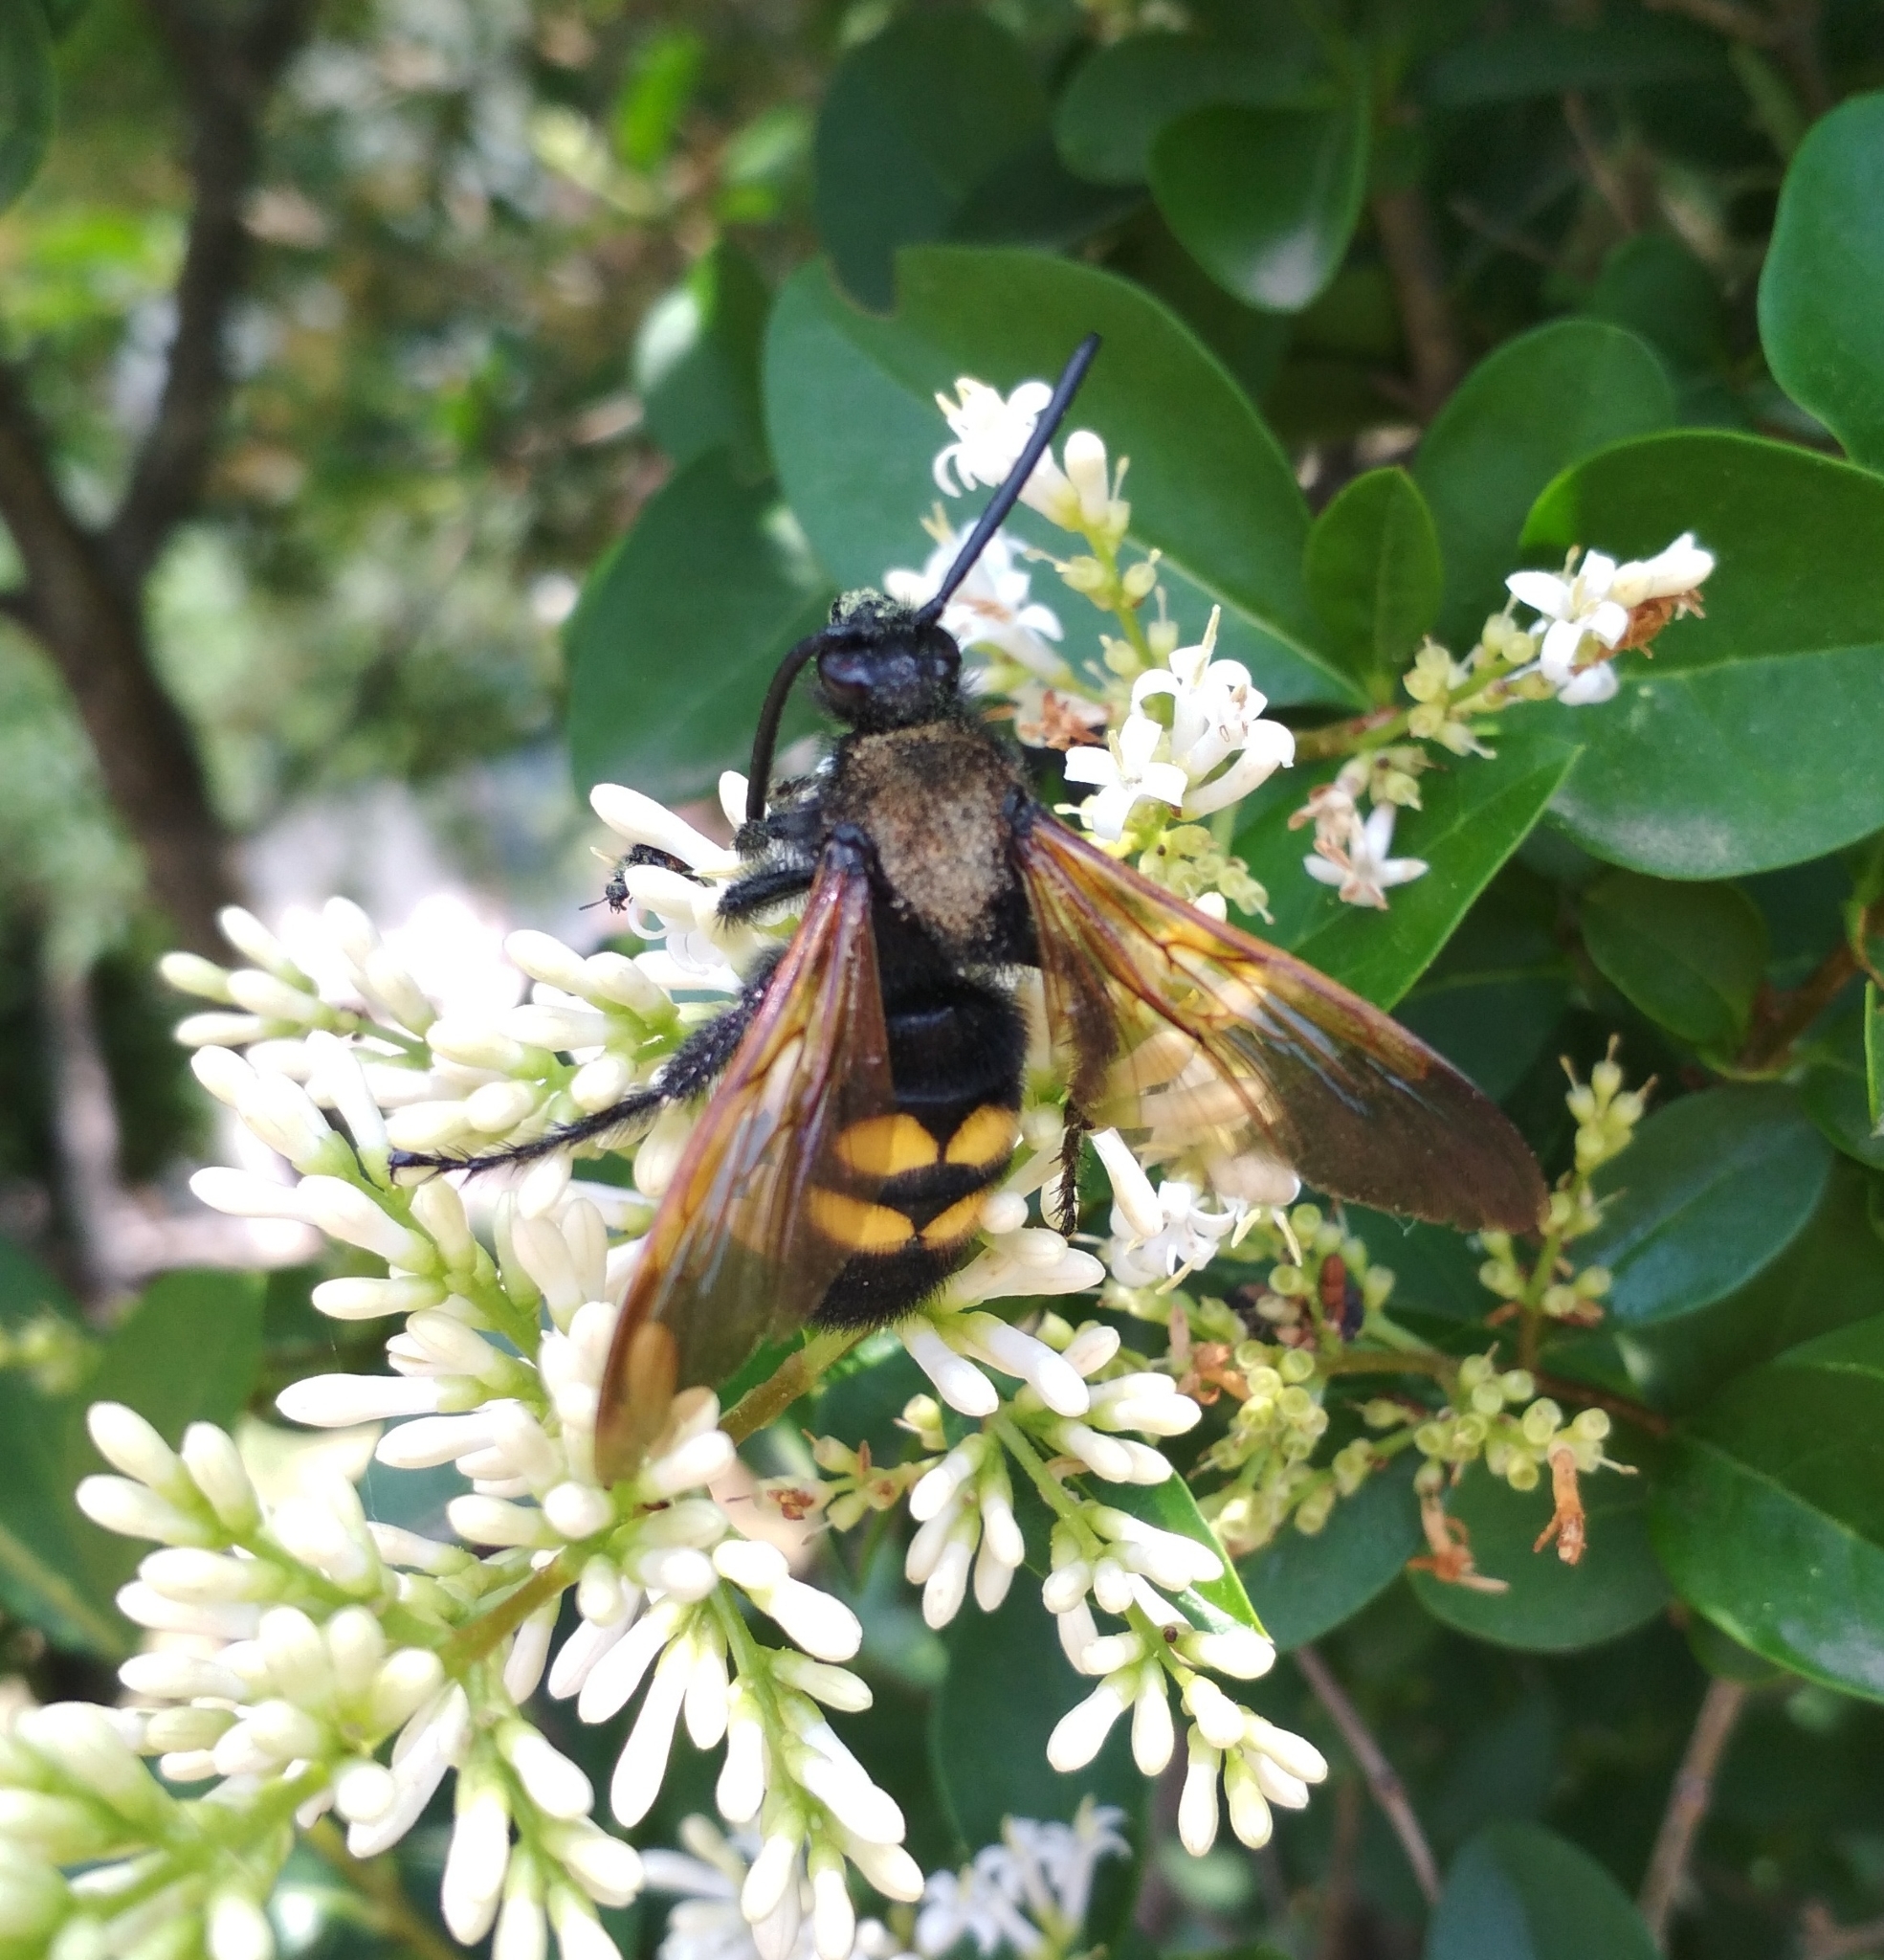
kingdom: Animalia
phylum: Arthropoda
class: Insecta
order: Hymenoptera
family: Scoliidae
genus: Megascolia
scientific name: Megascolia maculata
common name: Mammoth wasp
